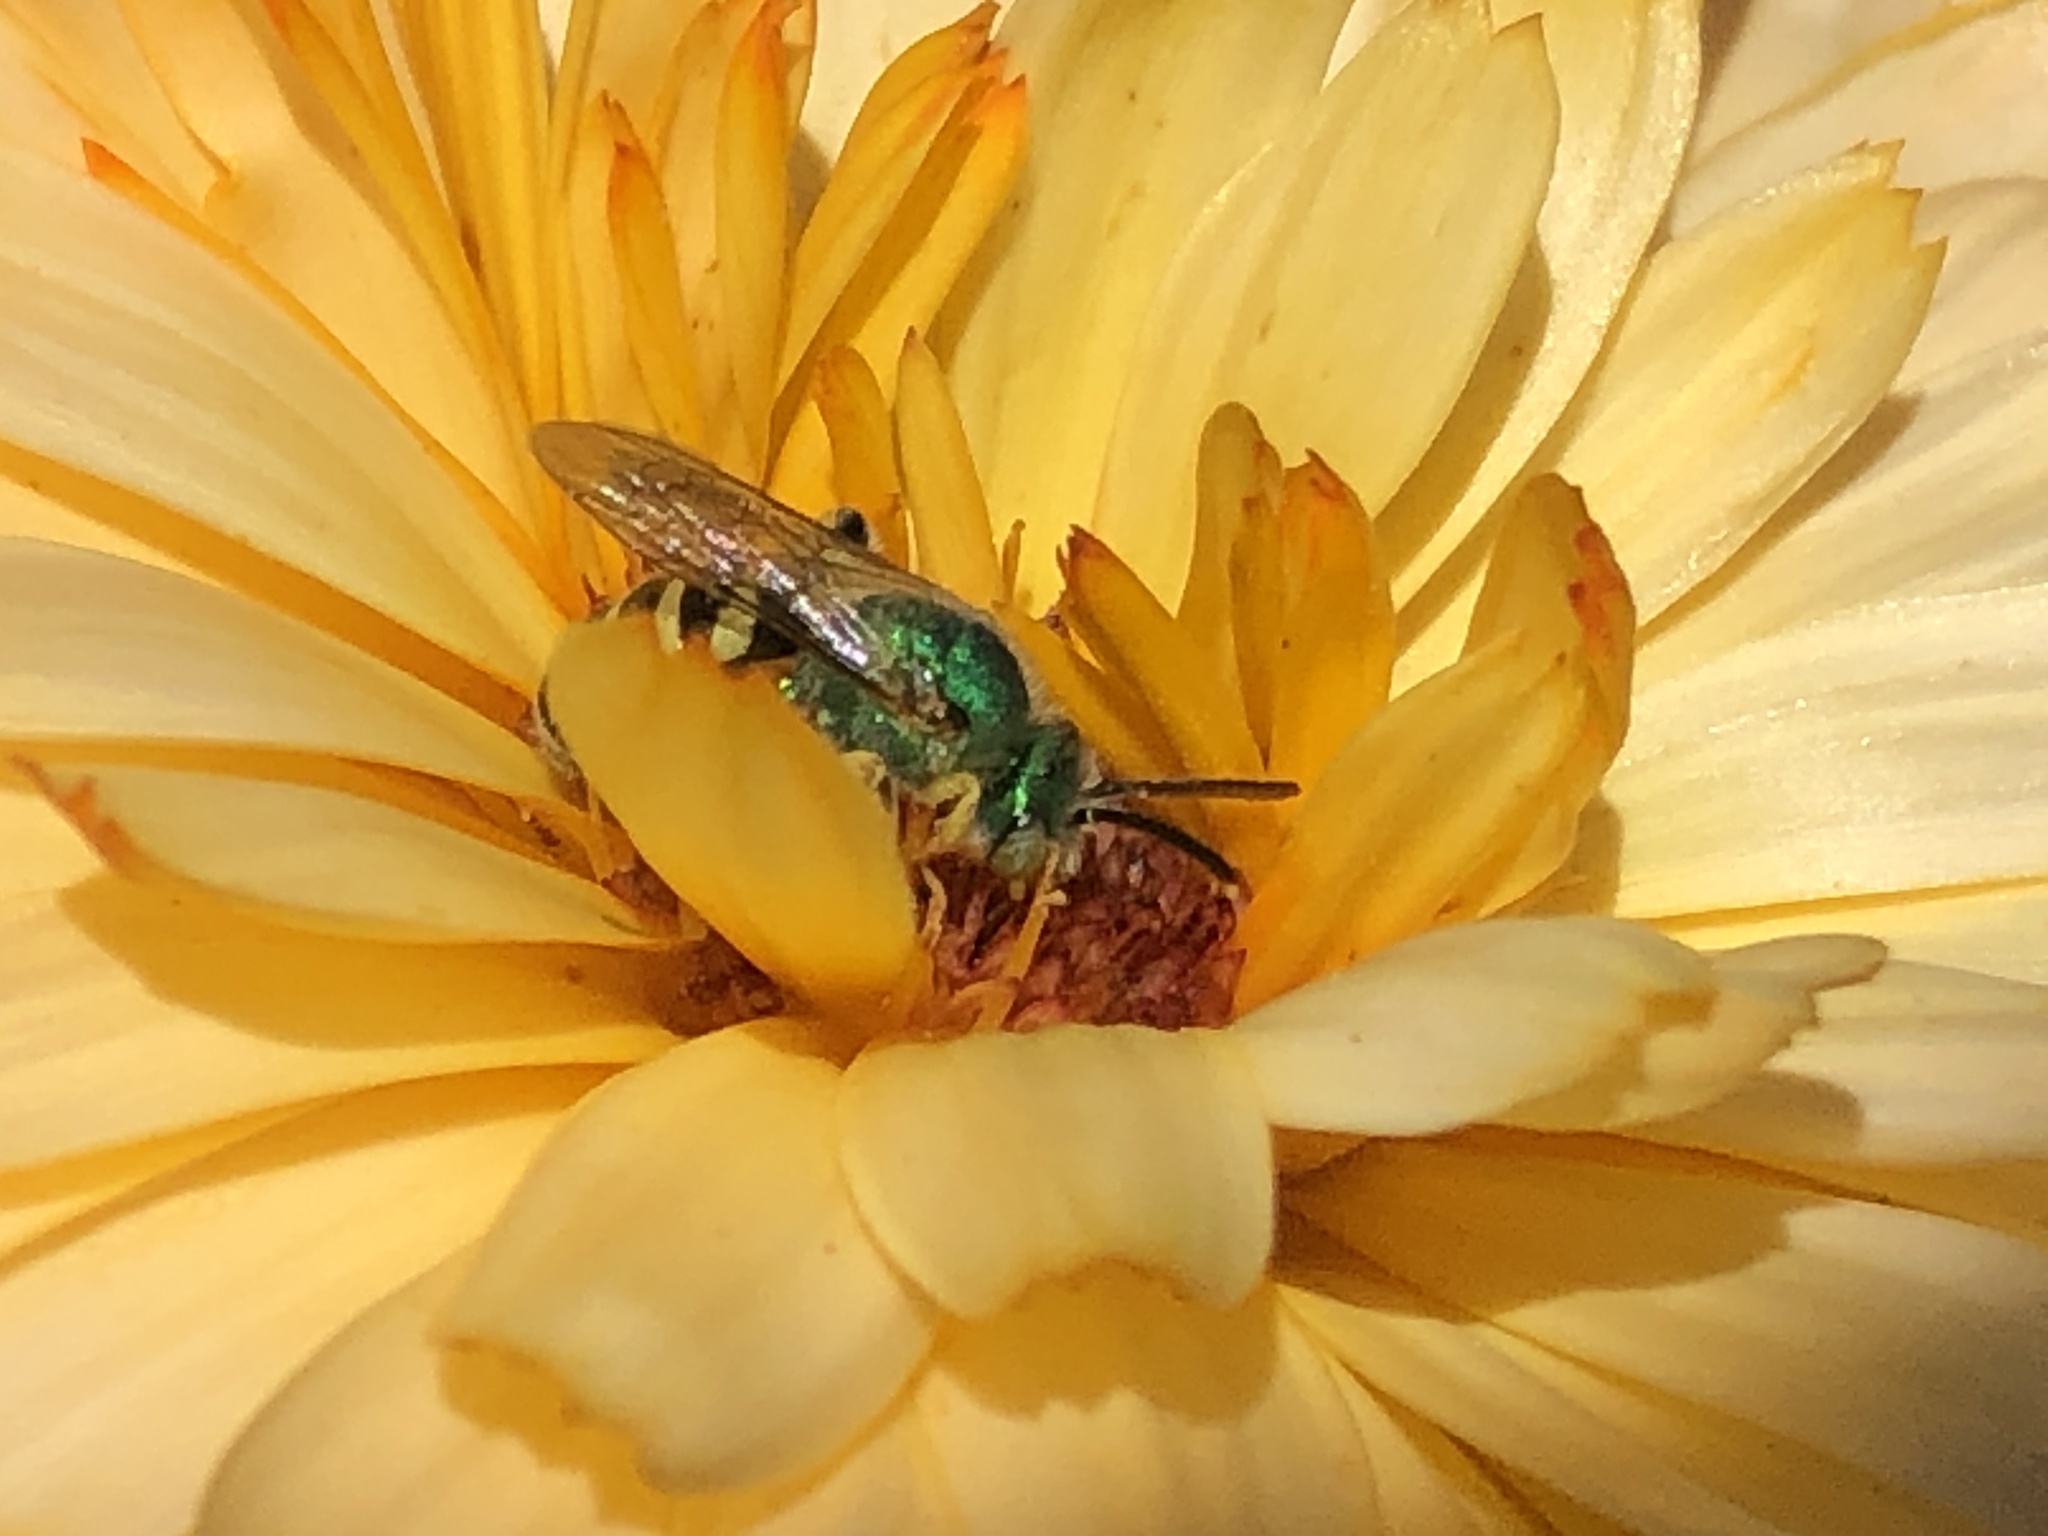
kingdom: Animalia
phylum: Arthropoda
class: Insecta
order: Hymenoptera
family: Halictidae
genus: Agapostemon
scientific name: Agapostemon texanus
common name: Texas striped sweat bee
